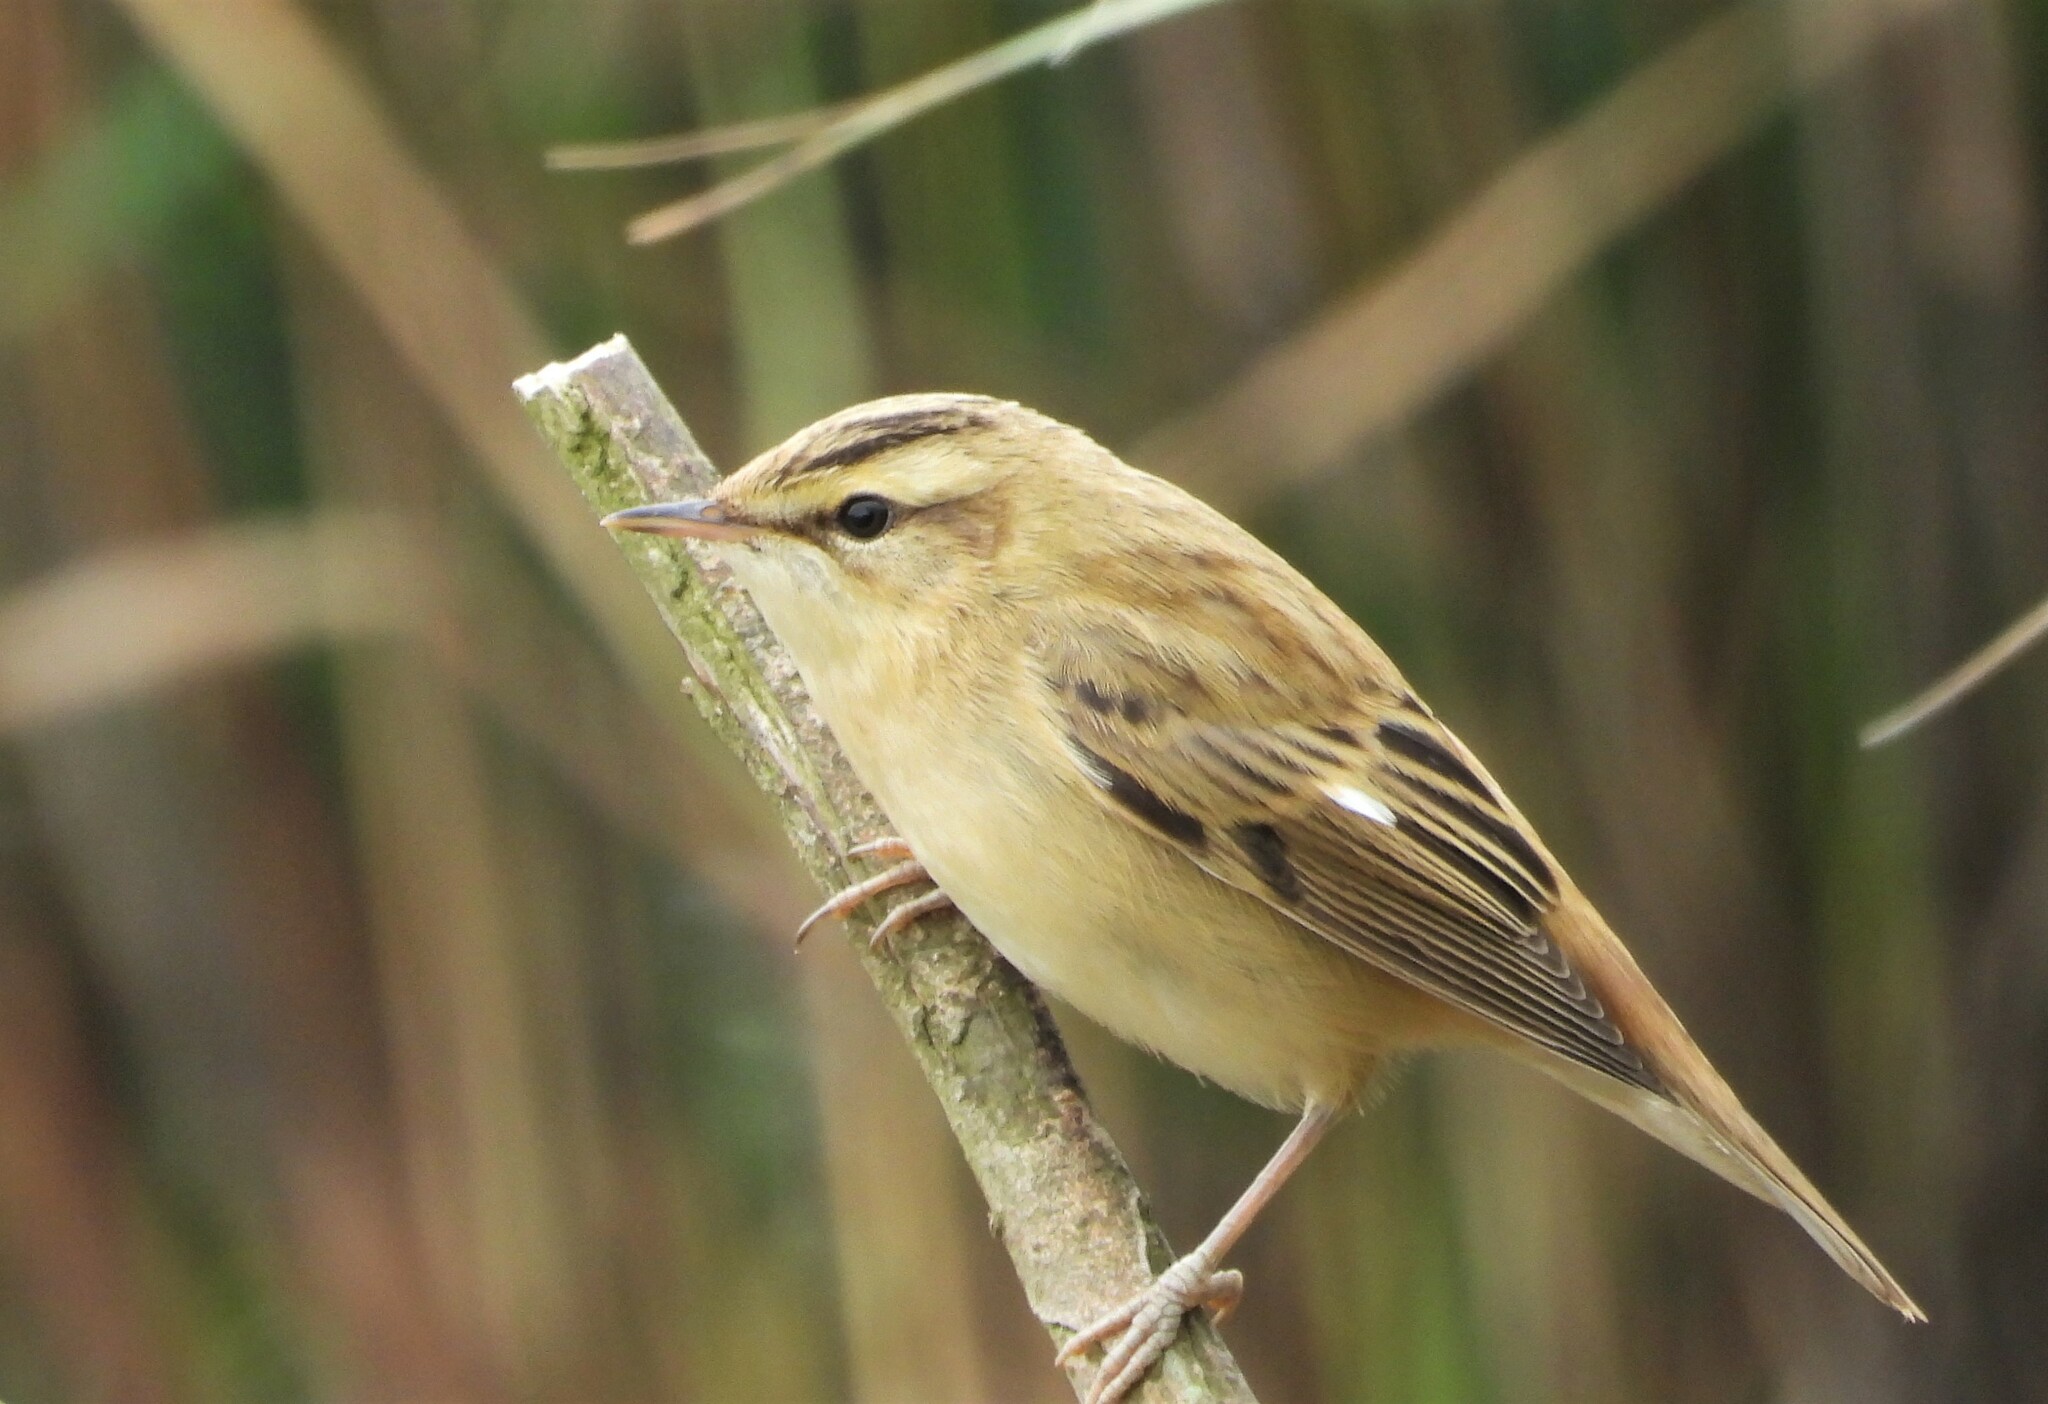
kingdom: Animalia
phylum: Chordata
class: Aves
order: Passeriformes
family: Acrocephalidae
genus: Acrocephalus
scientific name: Acrocephalus schoenobaenus
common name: Sedge warbler
